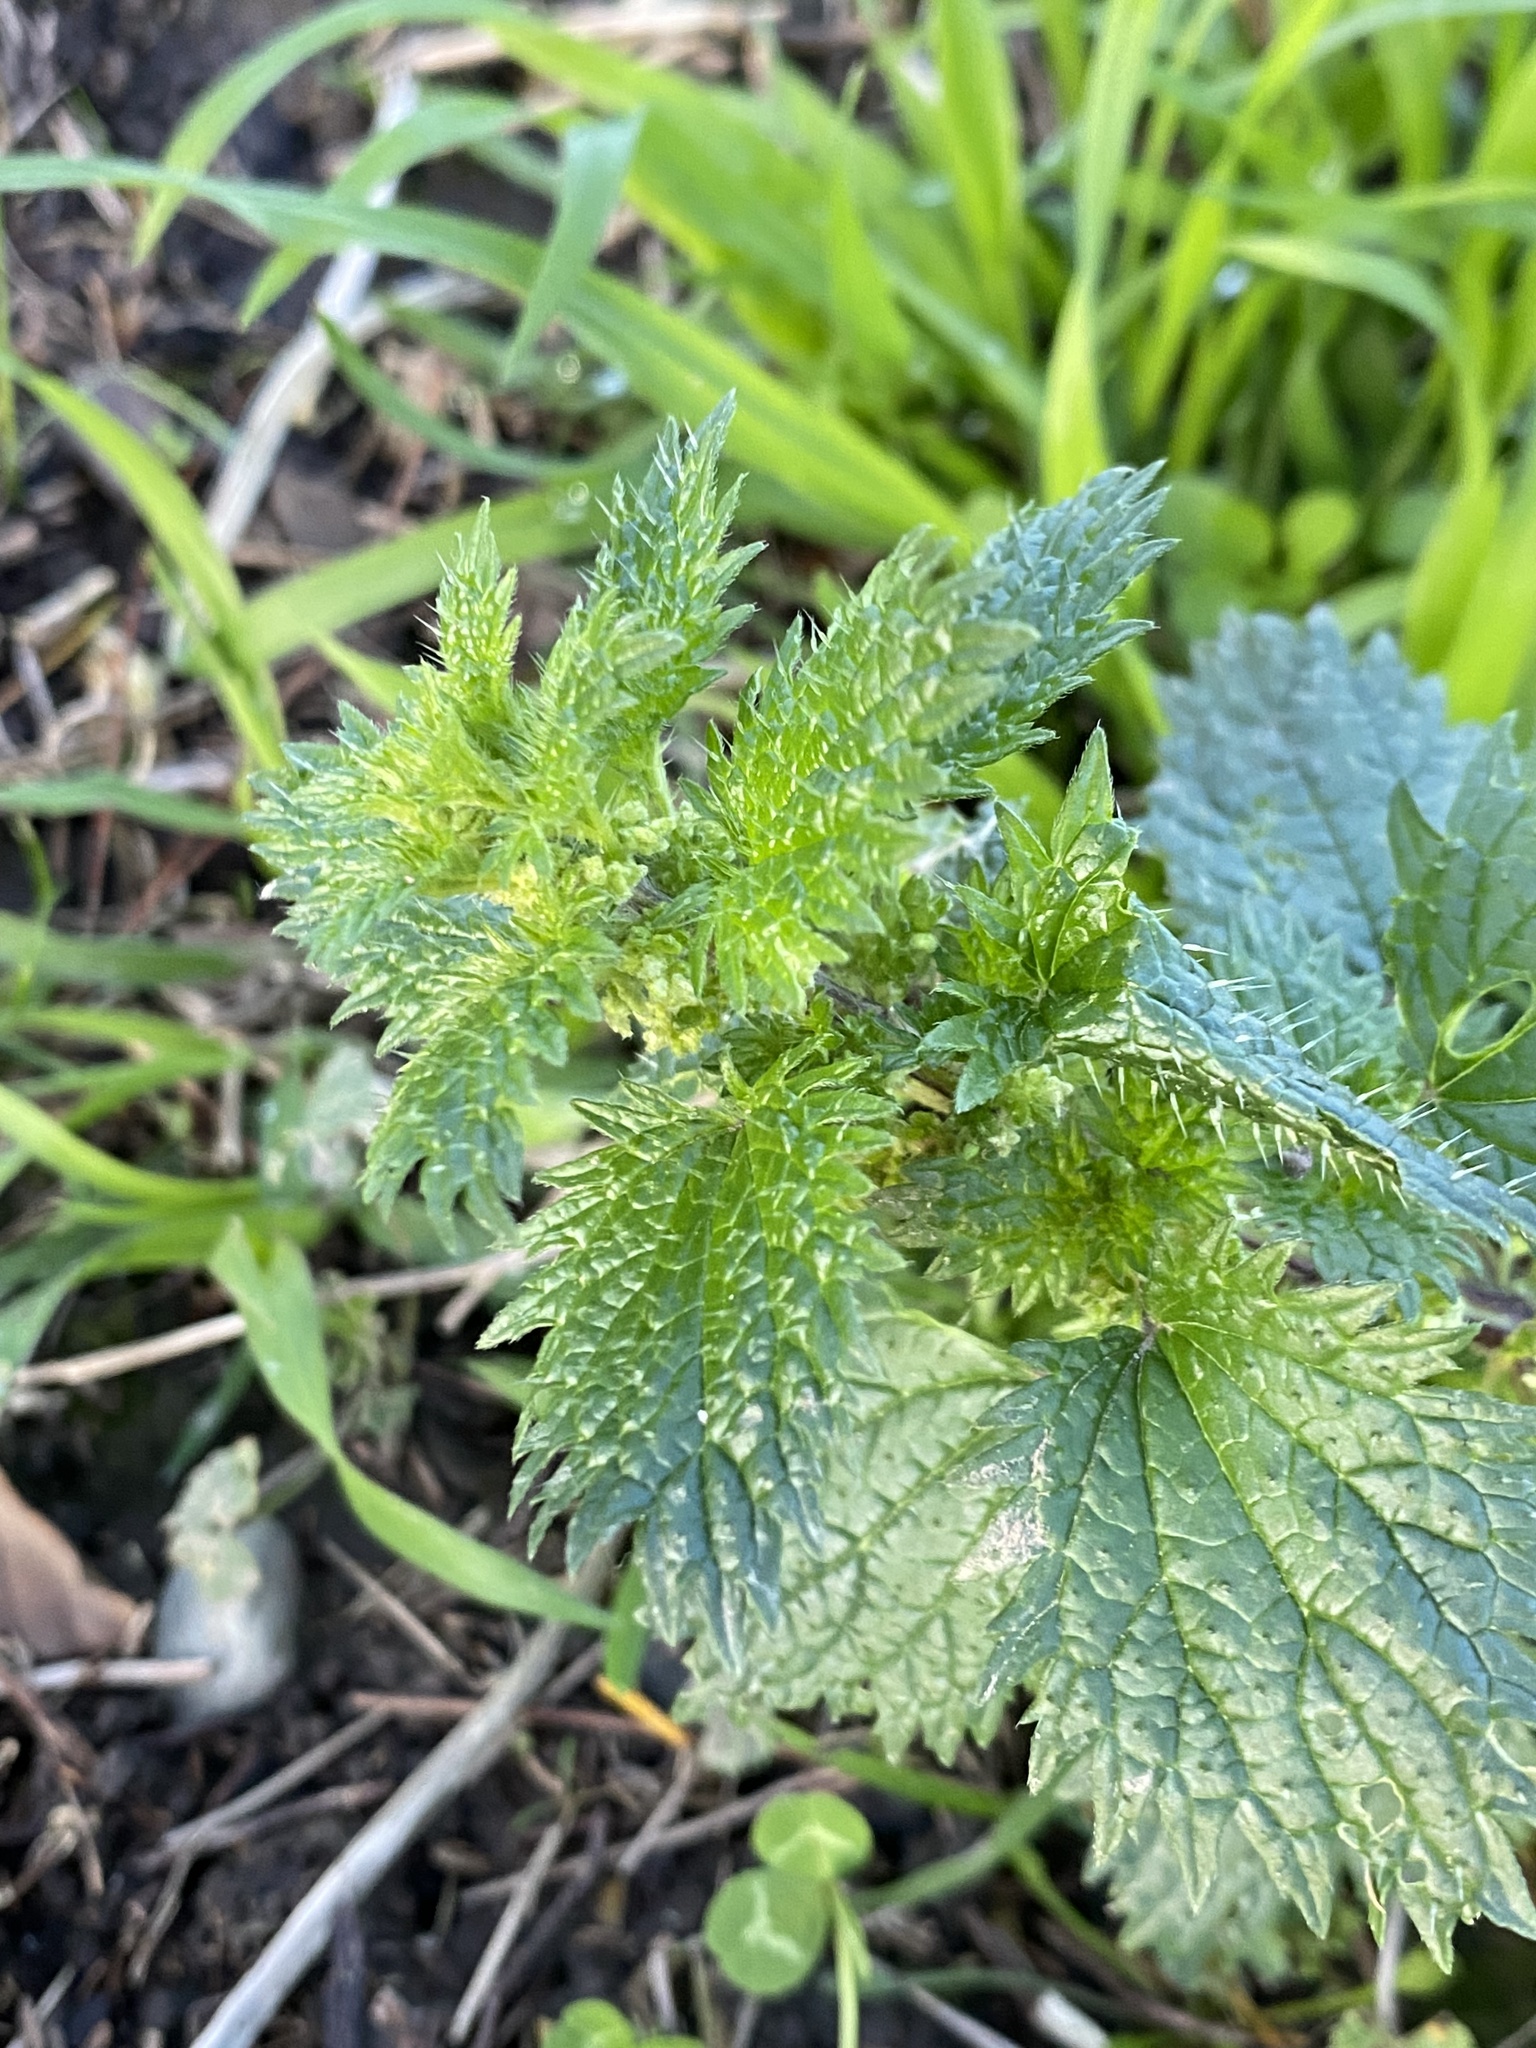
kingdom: Plantae
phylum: Tracheophyta
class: Magnoliopsida
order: Rosales
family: Urticaceae
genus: Urtica
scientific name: Urtica urens
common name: Dwarf nettle
